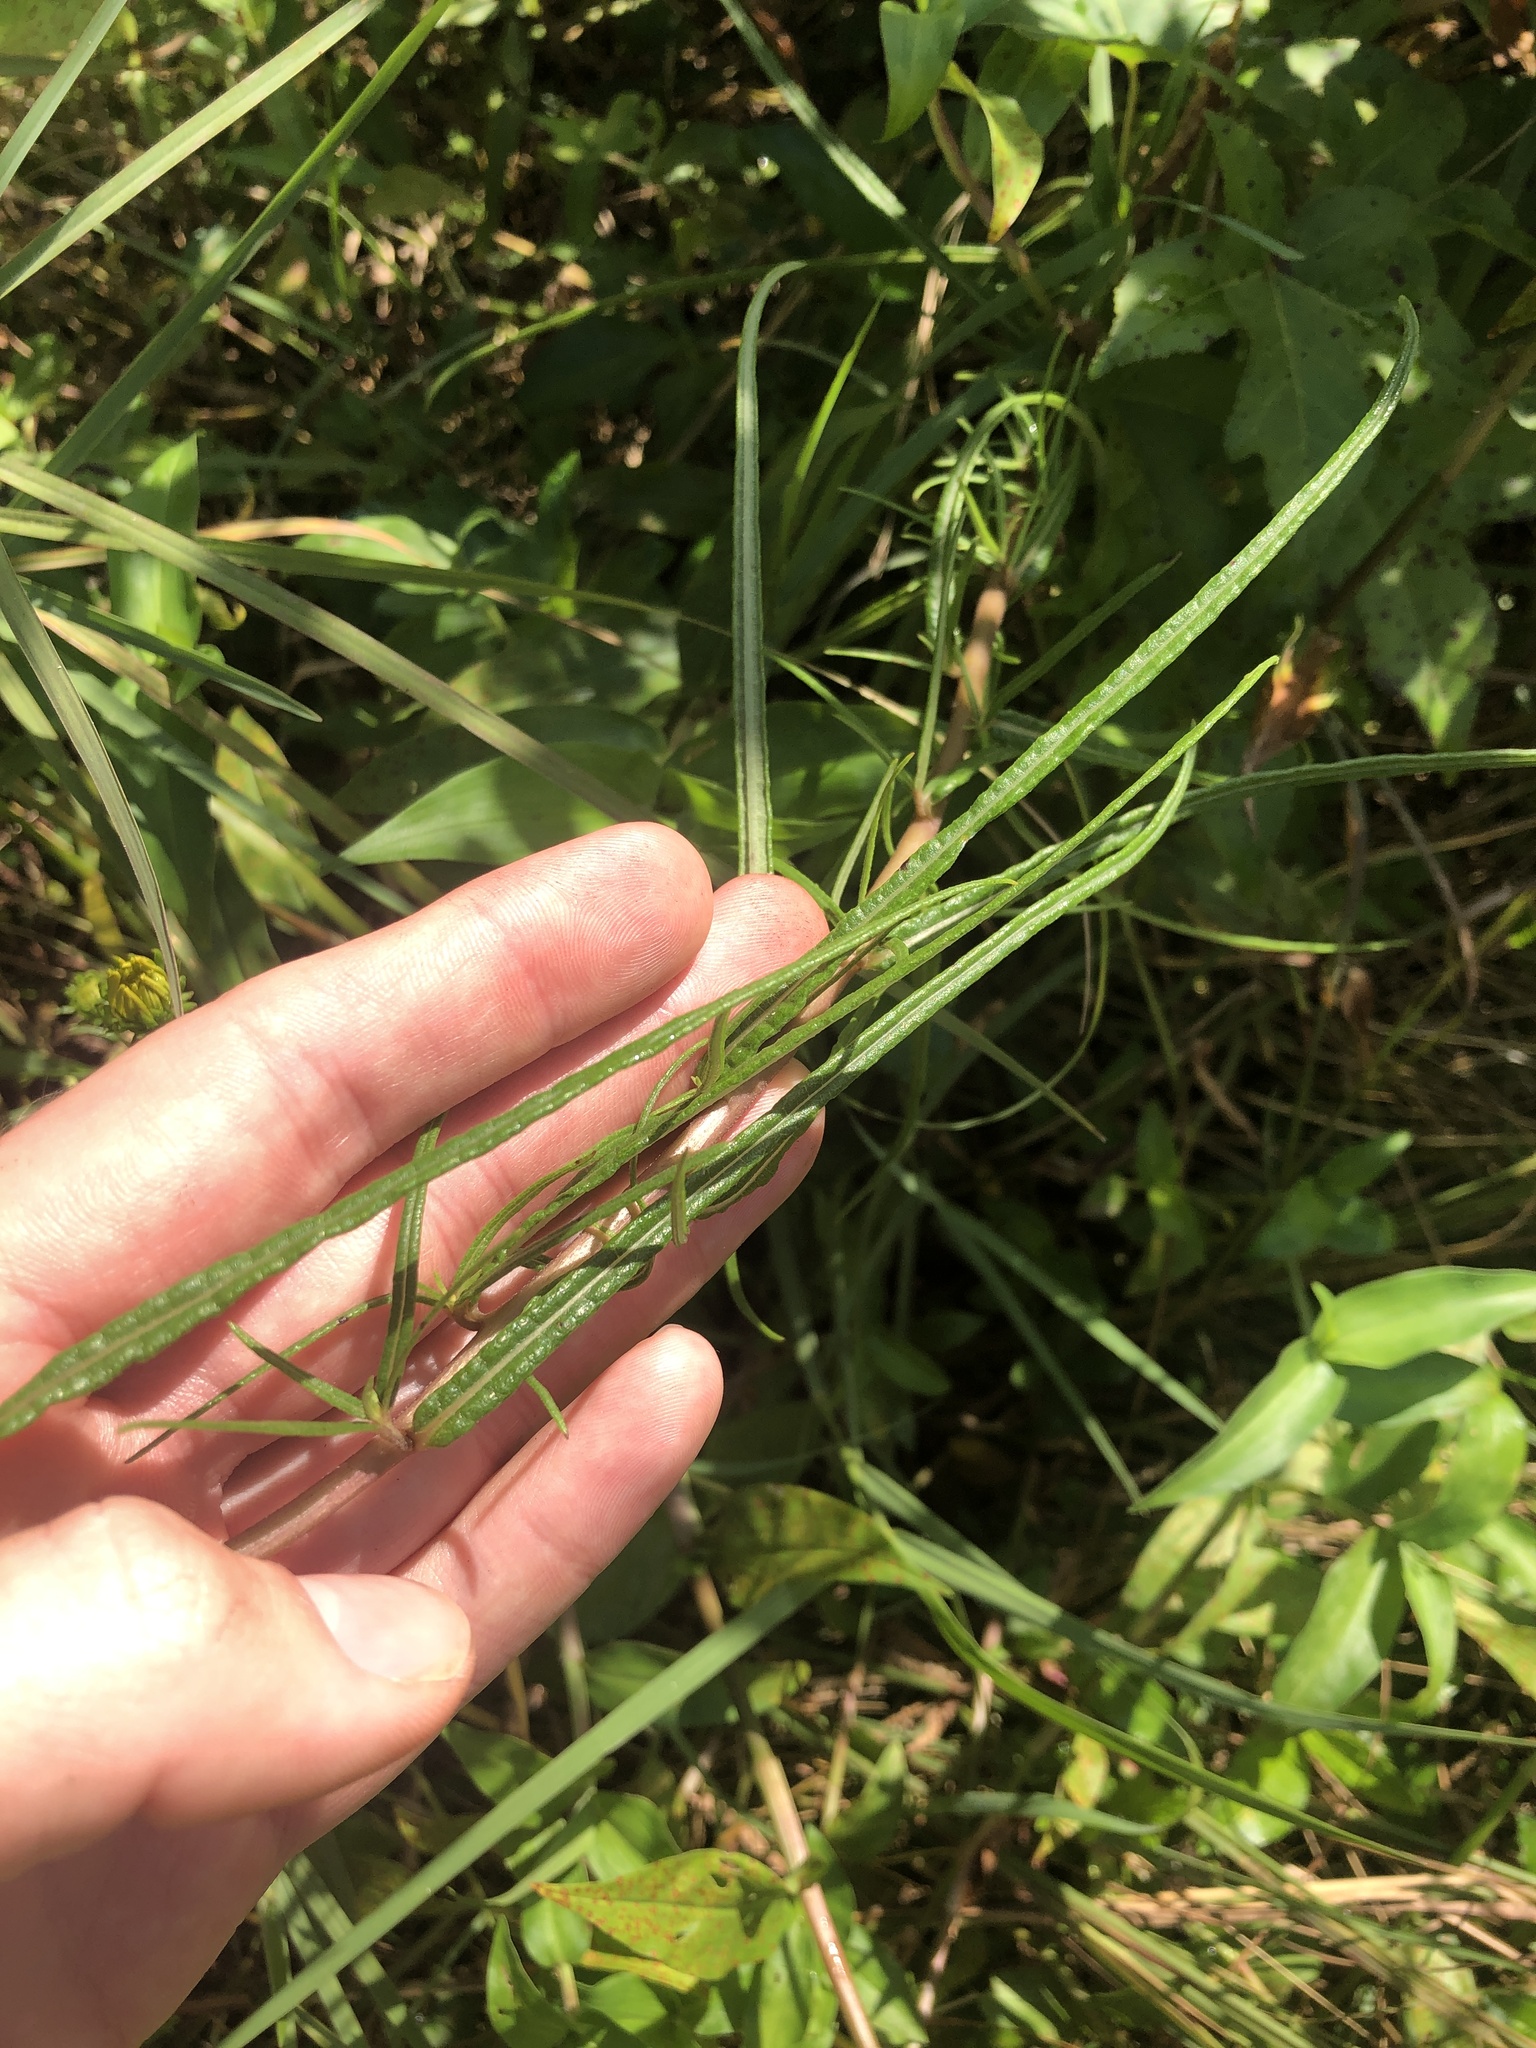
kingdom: Plantae
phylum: Tracheophyta
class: Magnoliopsida
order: Asterales
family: Asteraceae
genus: Helianthus
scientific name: Helianthus angustifolius
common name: Swamp sunflower
